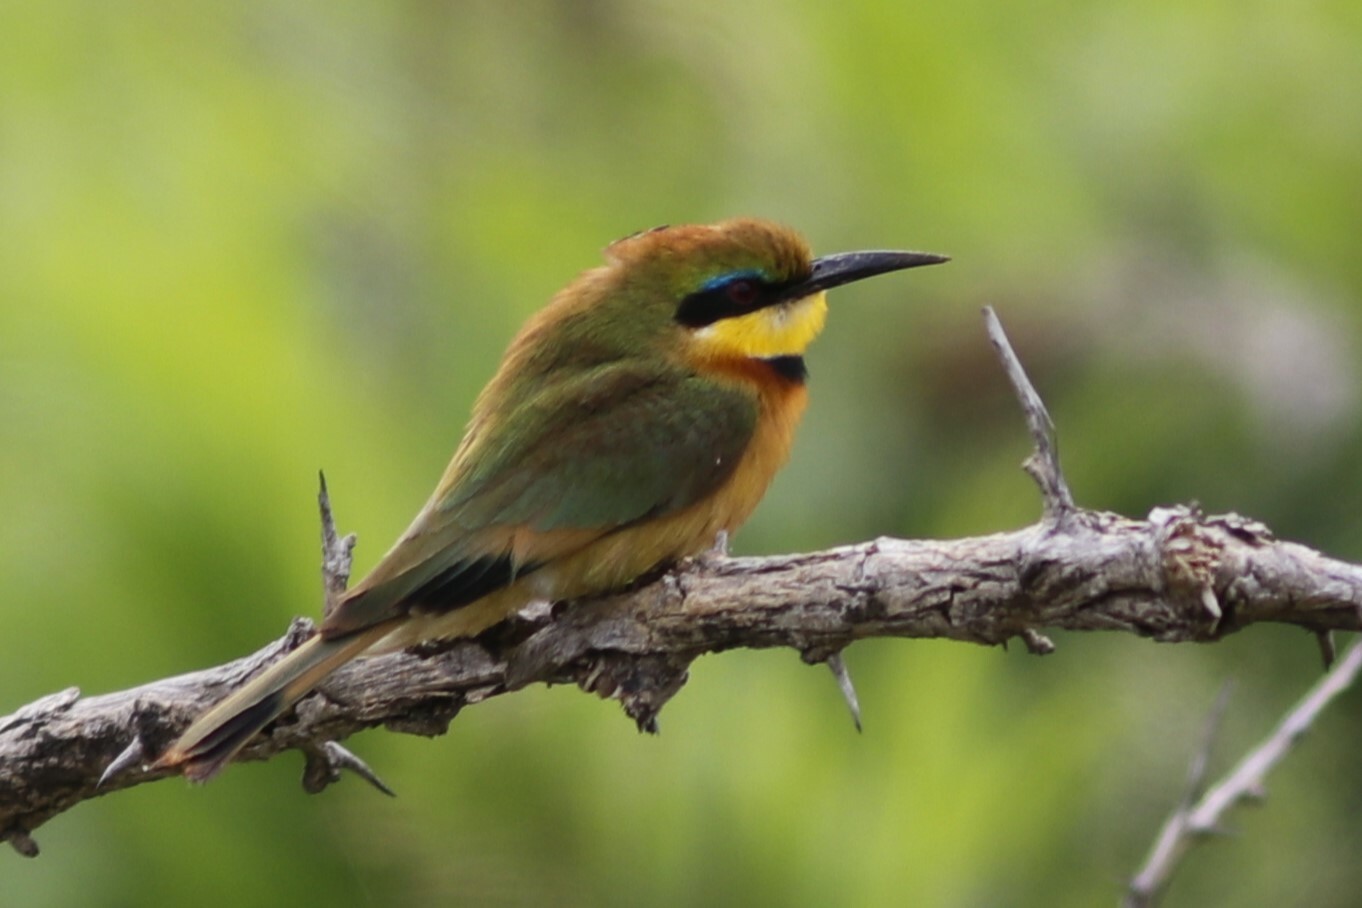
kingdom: Animalia
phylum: Chordata
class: Aves
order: Coraciiformes
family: Meropidae
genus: Merops
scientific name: Merops pusillus
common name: Little bee-eater
